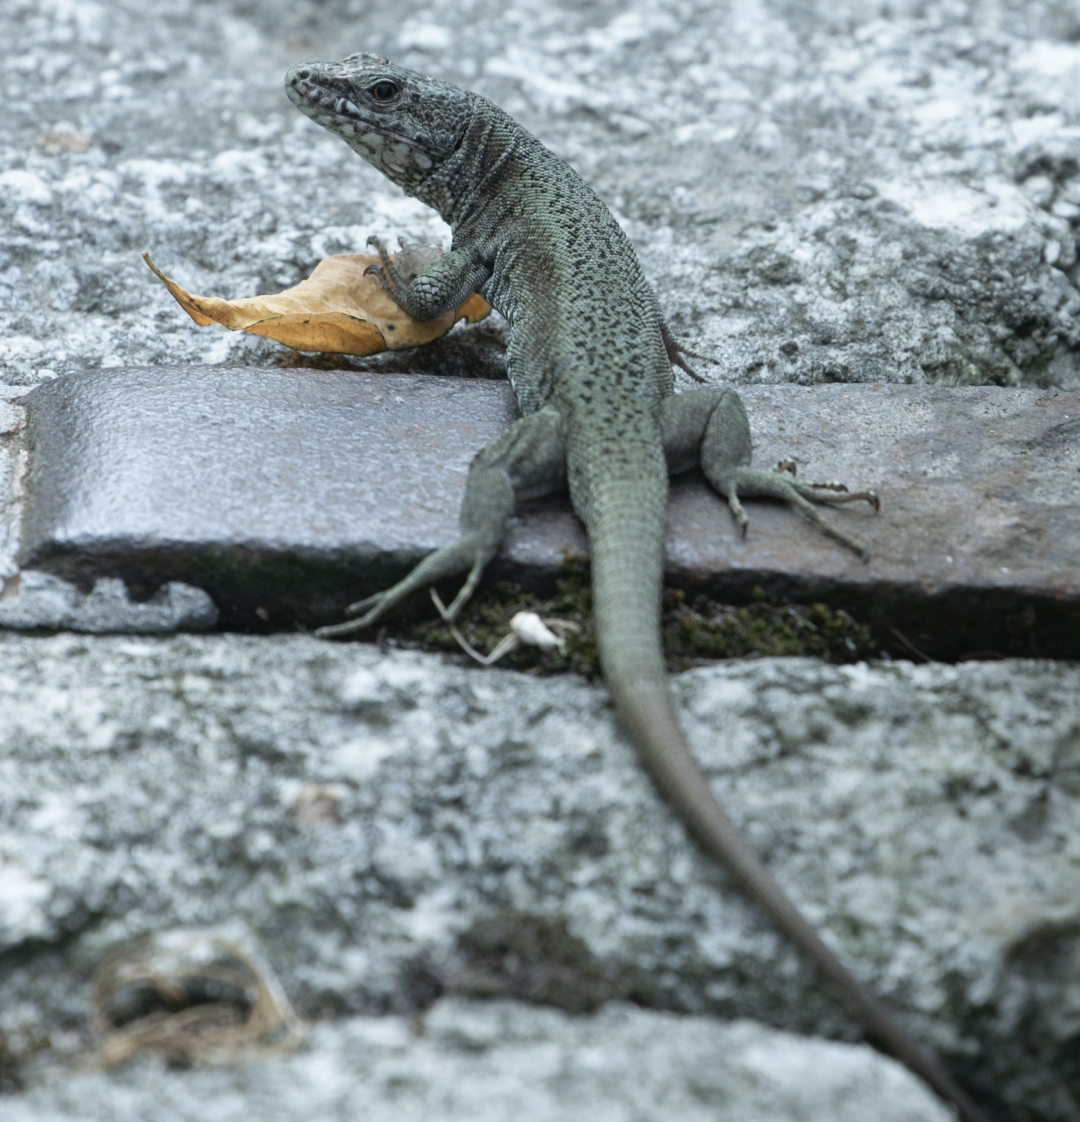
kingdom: Animalia
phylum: Chordata
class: Squamata
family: Lacertidae
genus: Podarcis
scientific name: Podarcis muralis
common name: Common wall lizard
